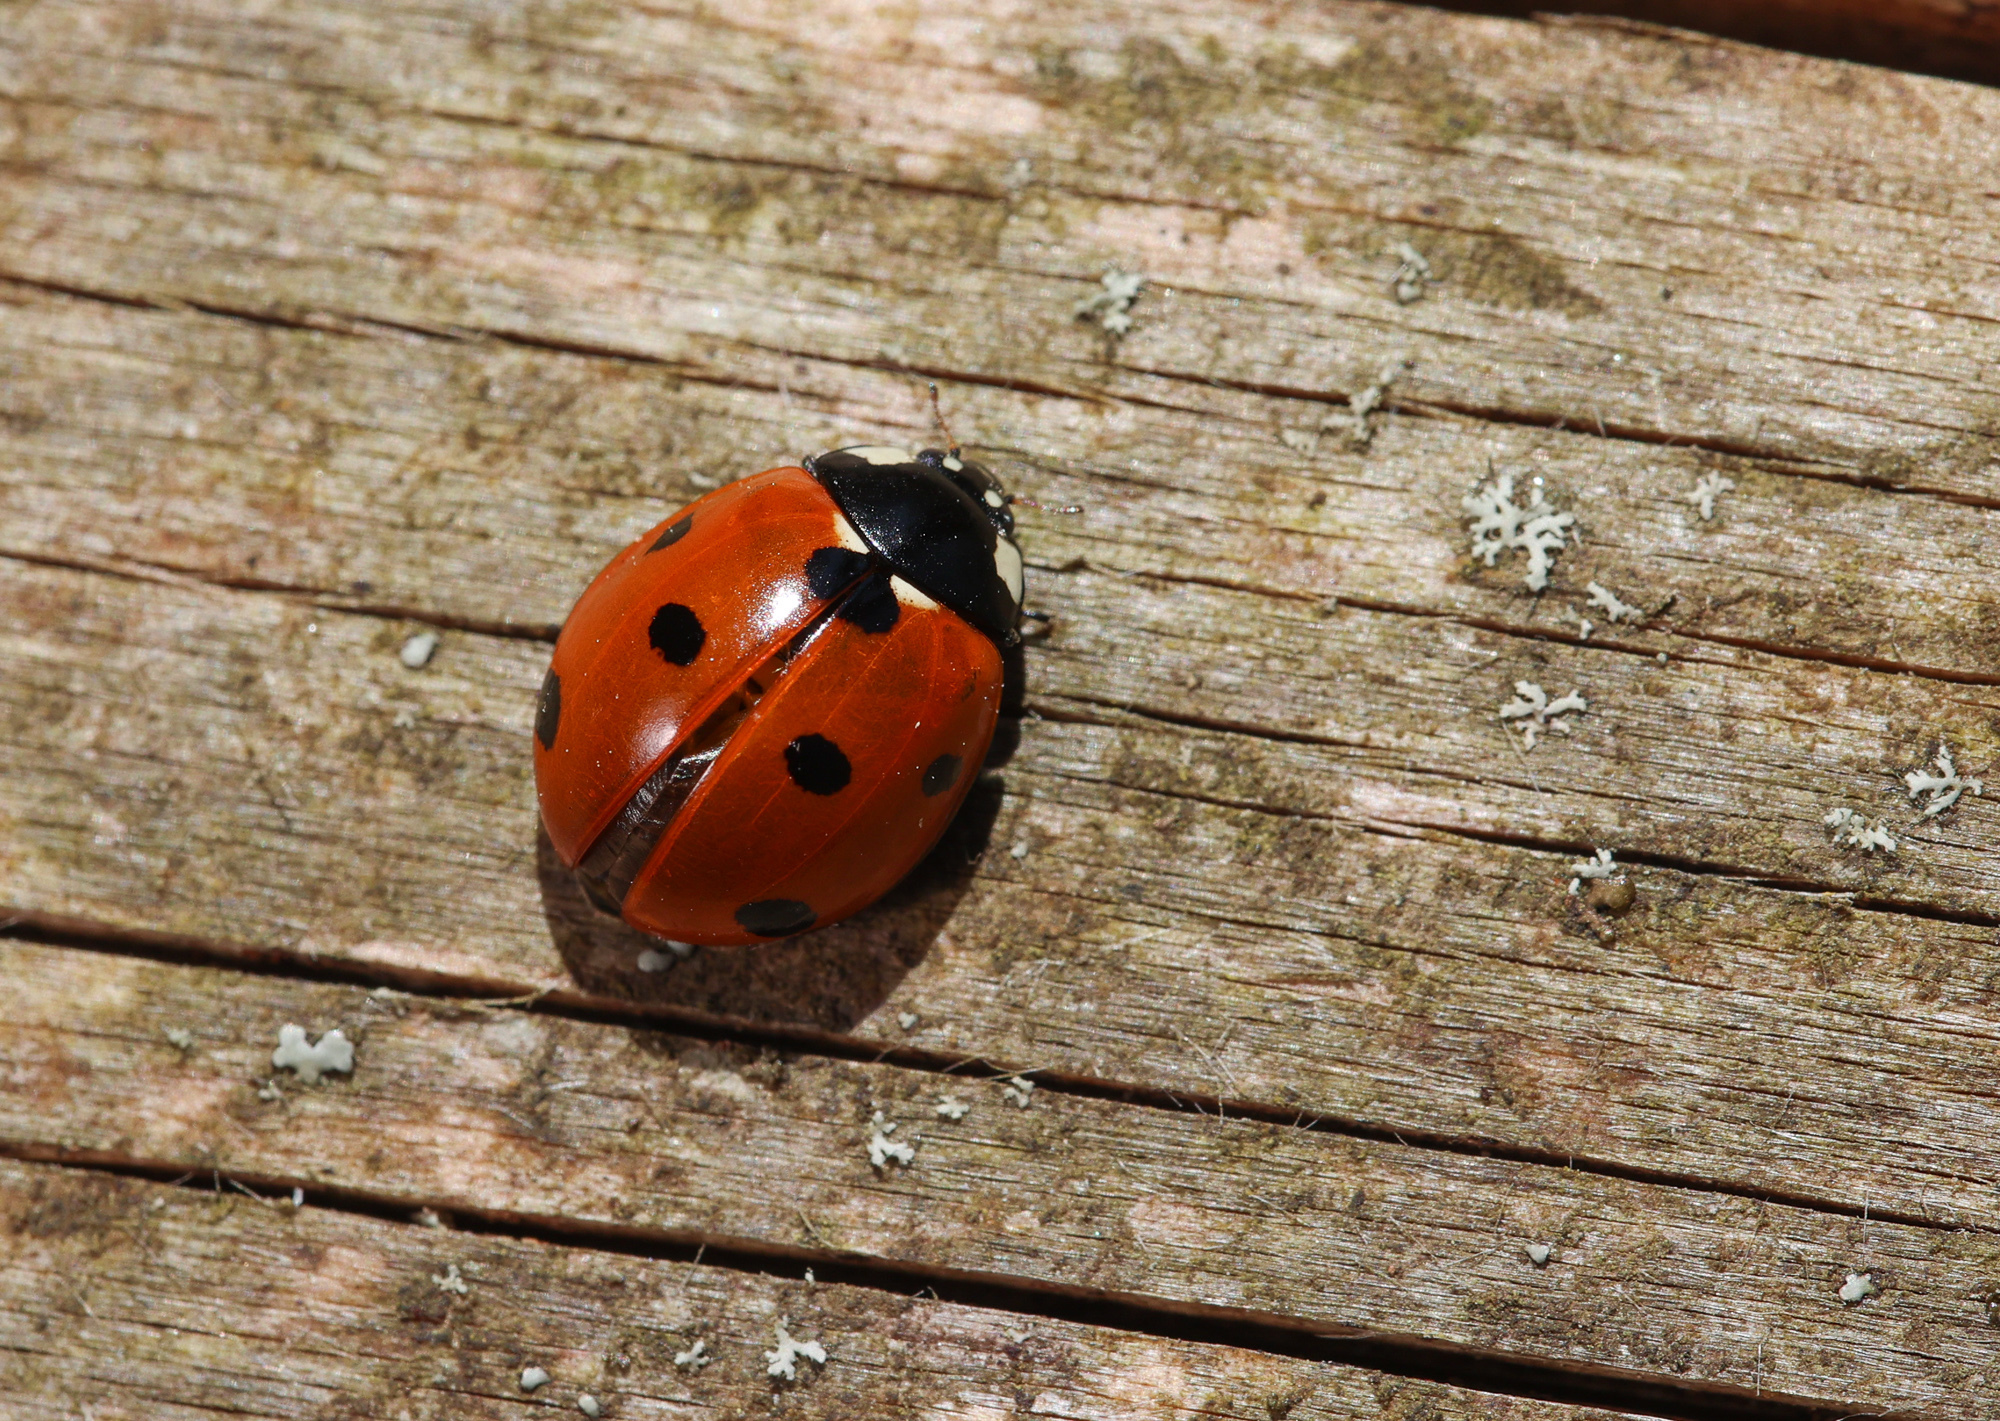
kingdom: Animalia
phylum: Arthropoda
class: Insecta
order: Coleoptera
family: Coccinellidae
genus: Coccinella
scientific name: Coccinella septempunctata
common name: Sevenspotted lady beetle
